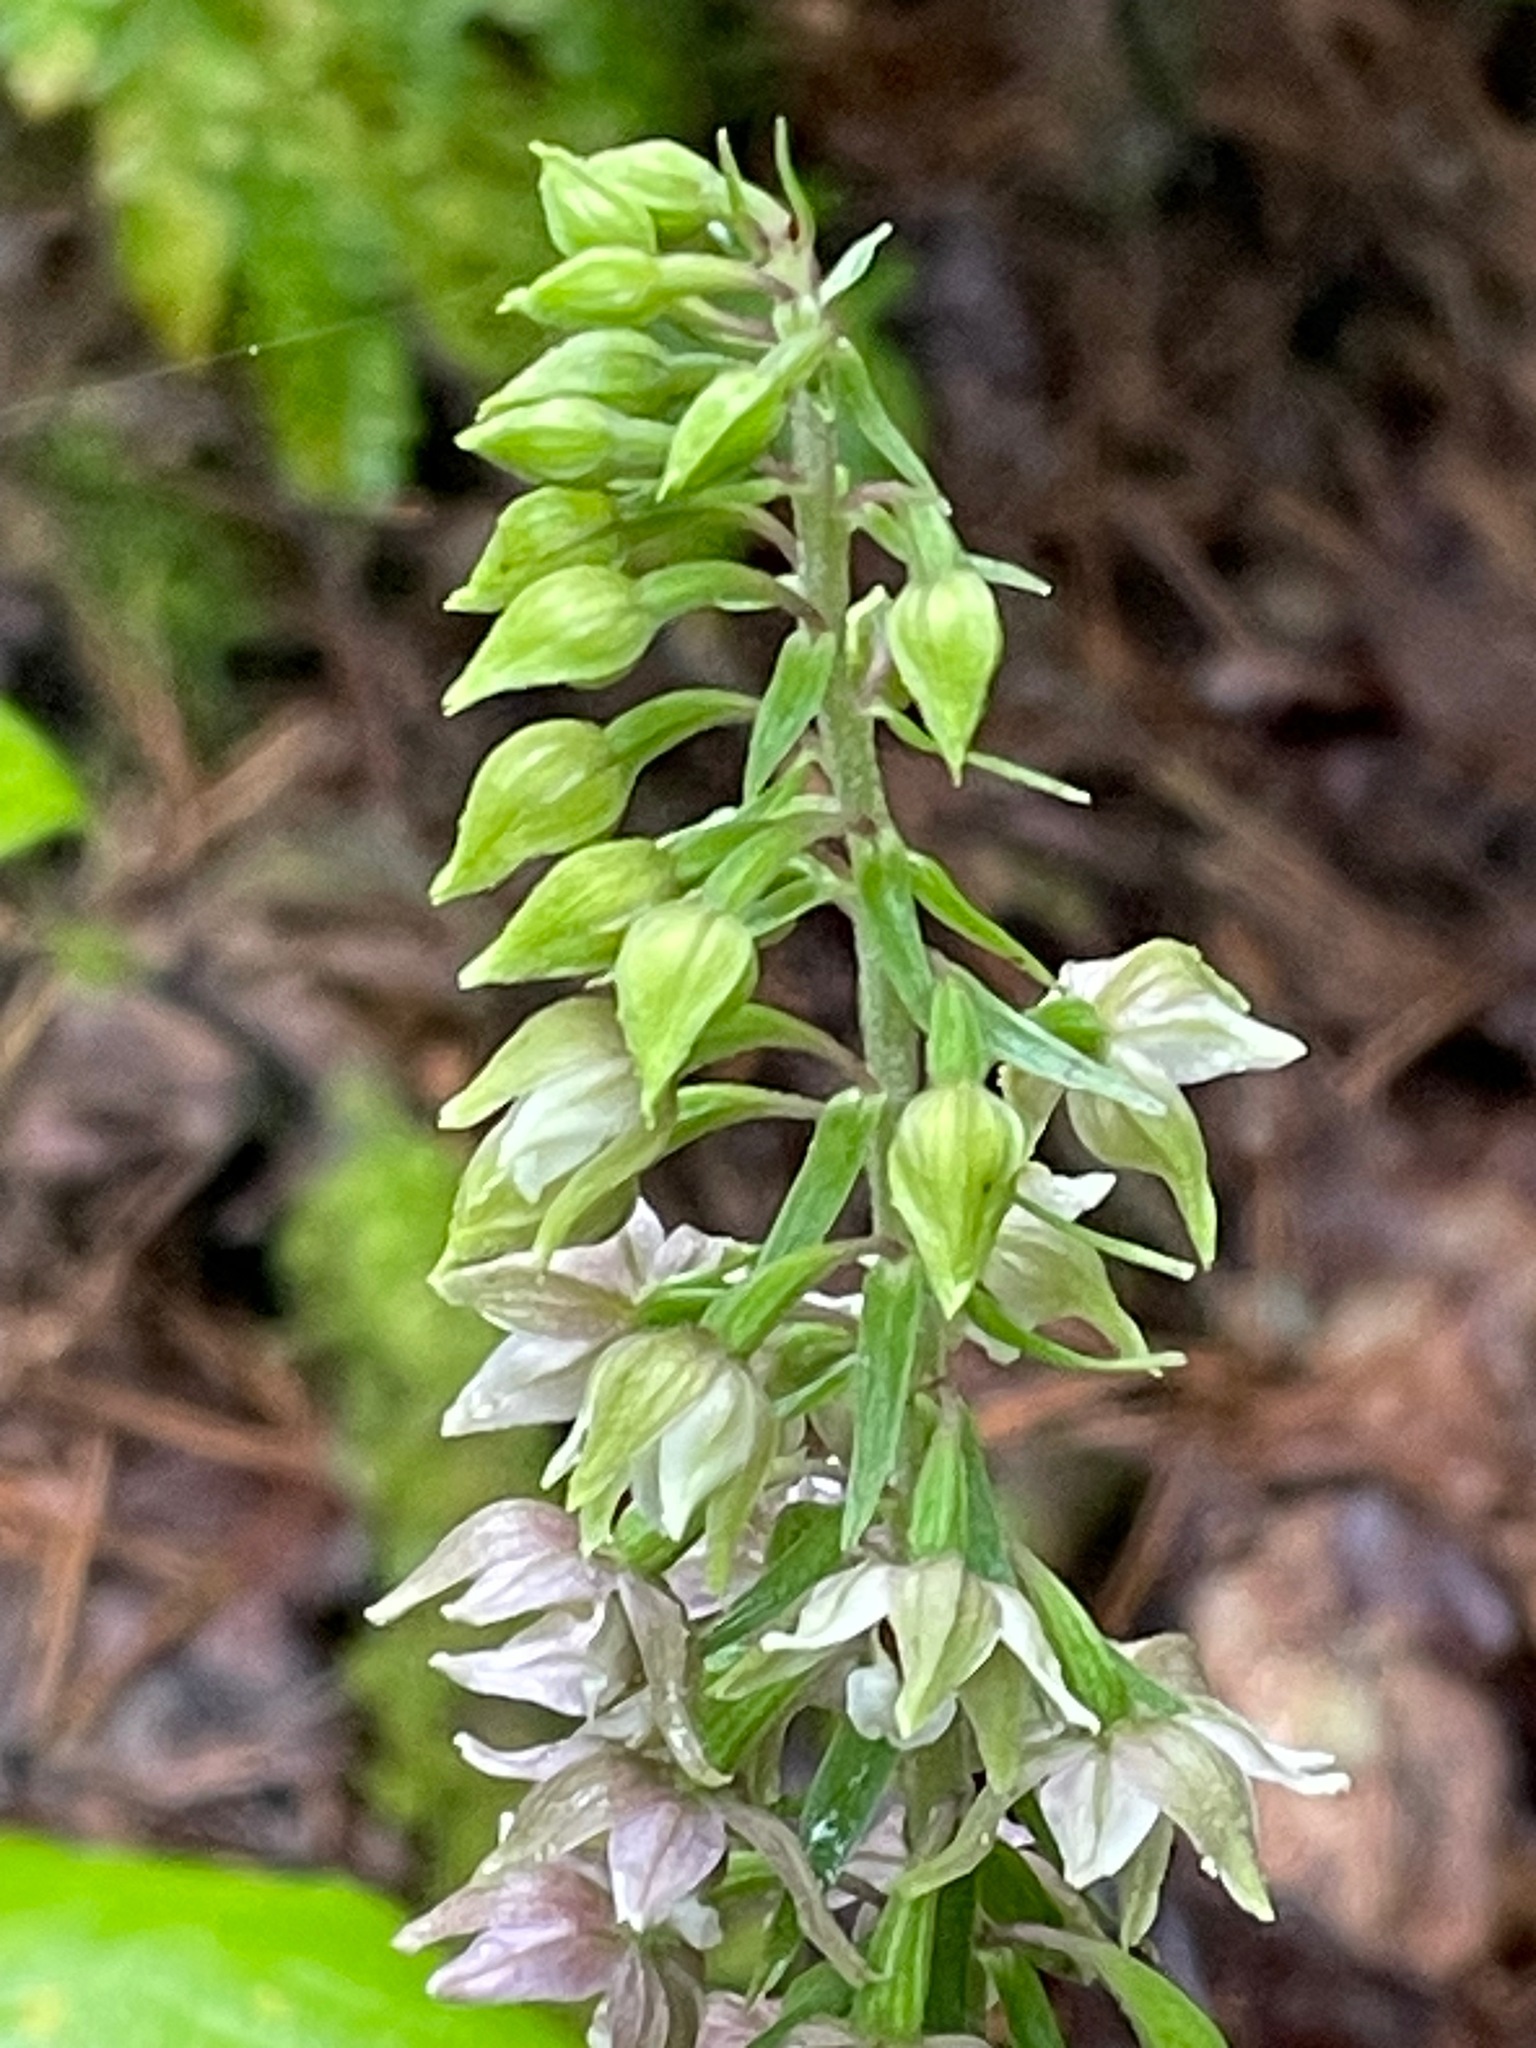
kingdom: Plantae
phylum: Tracheophyta
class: Liliopsida
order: Asparagales
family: Orchidaceae
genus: Epipactis
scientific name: Epipactis helleborine
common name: Broad-leaved helleborine
